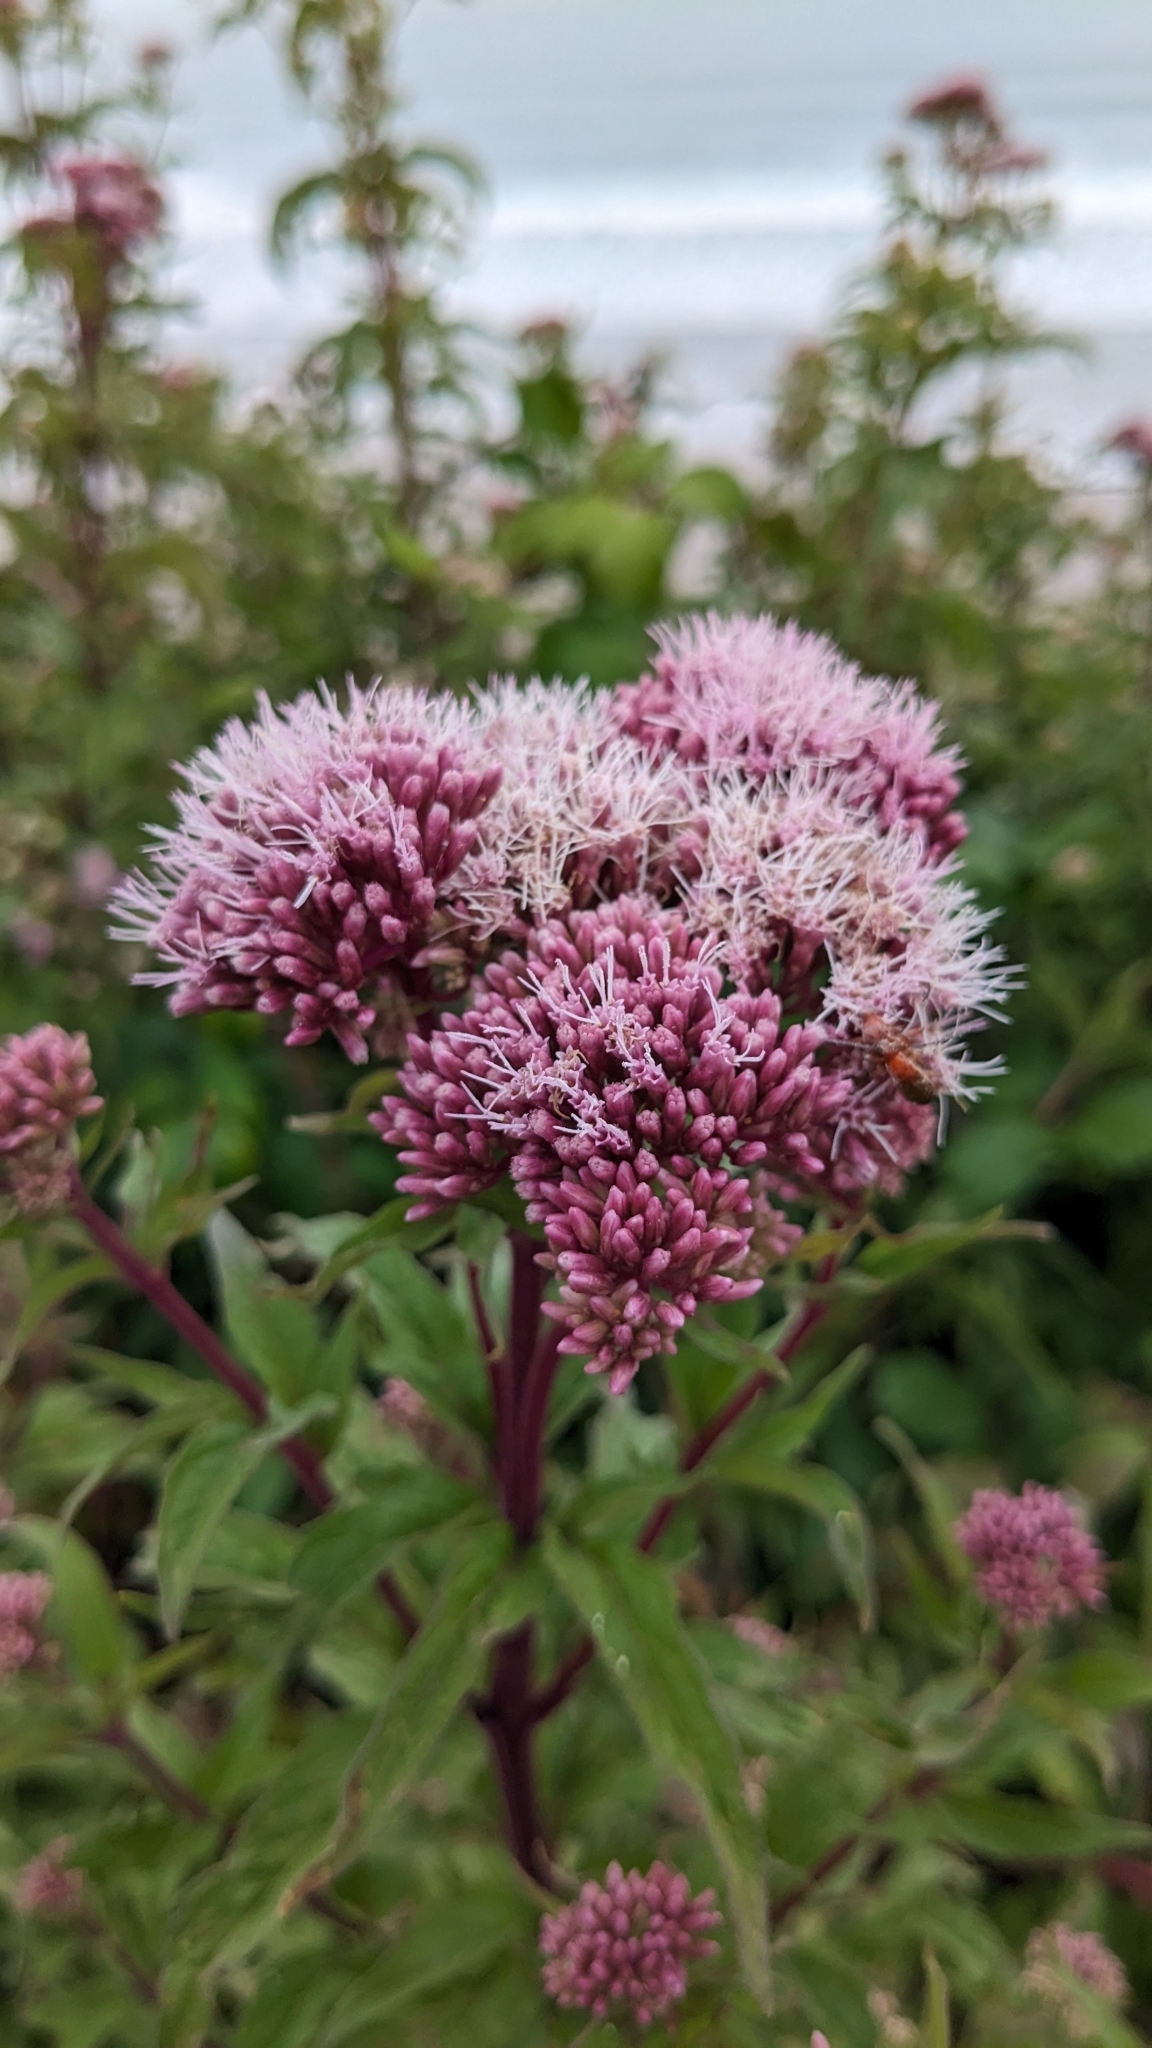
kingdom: Plantae
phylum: Tracheophyta
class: Magnoliopsida
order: Asterales
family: Asteraceae
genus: Eupatorium
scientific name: Eupatorium cannabinum
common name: Hemp-agrimony
